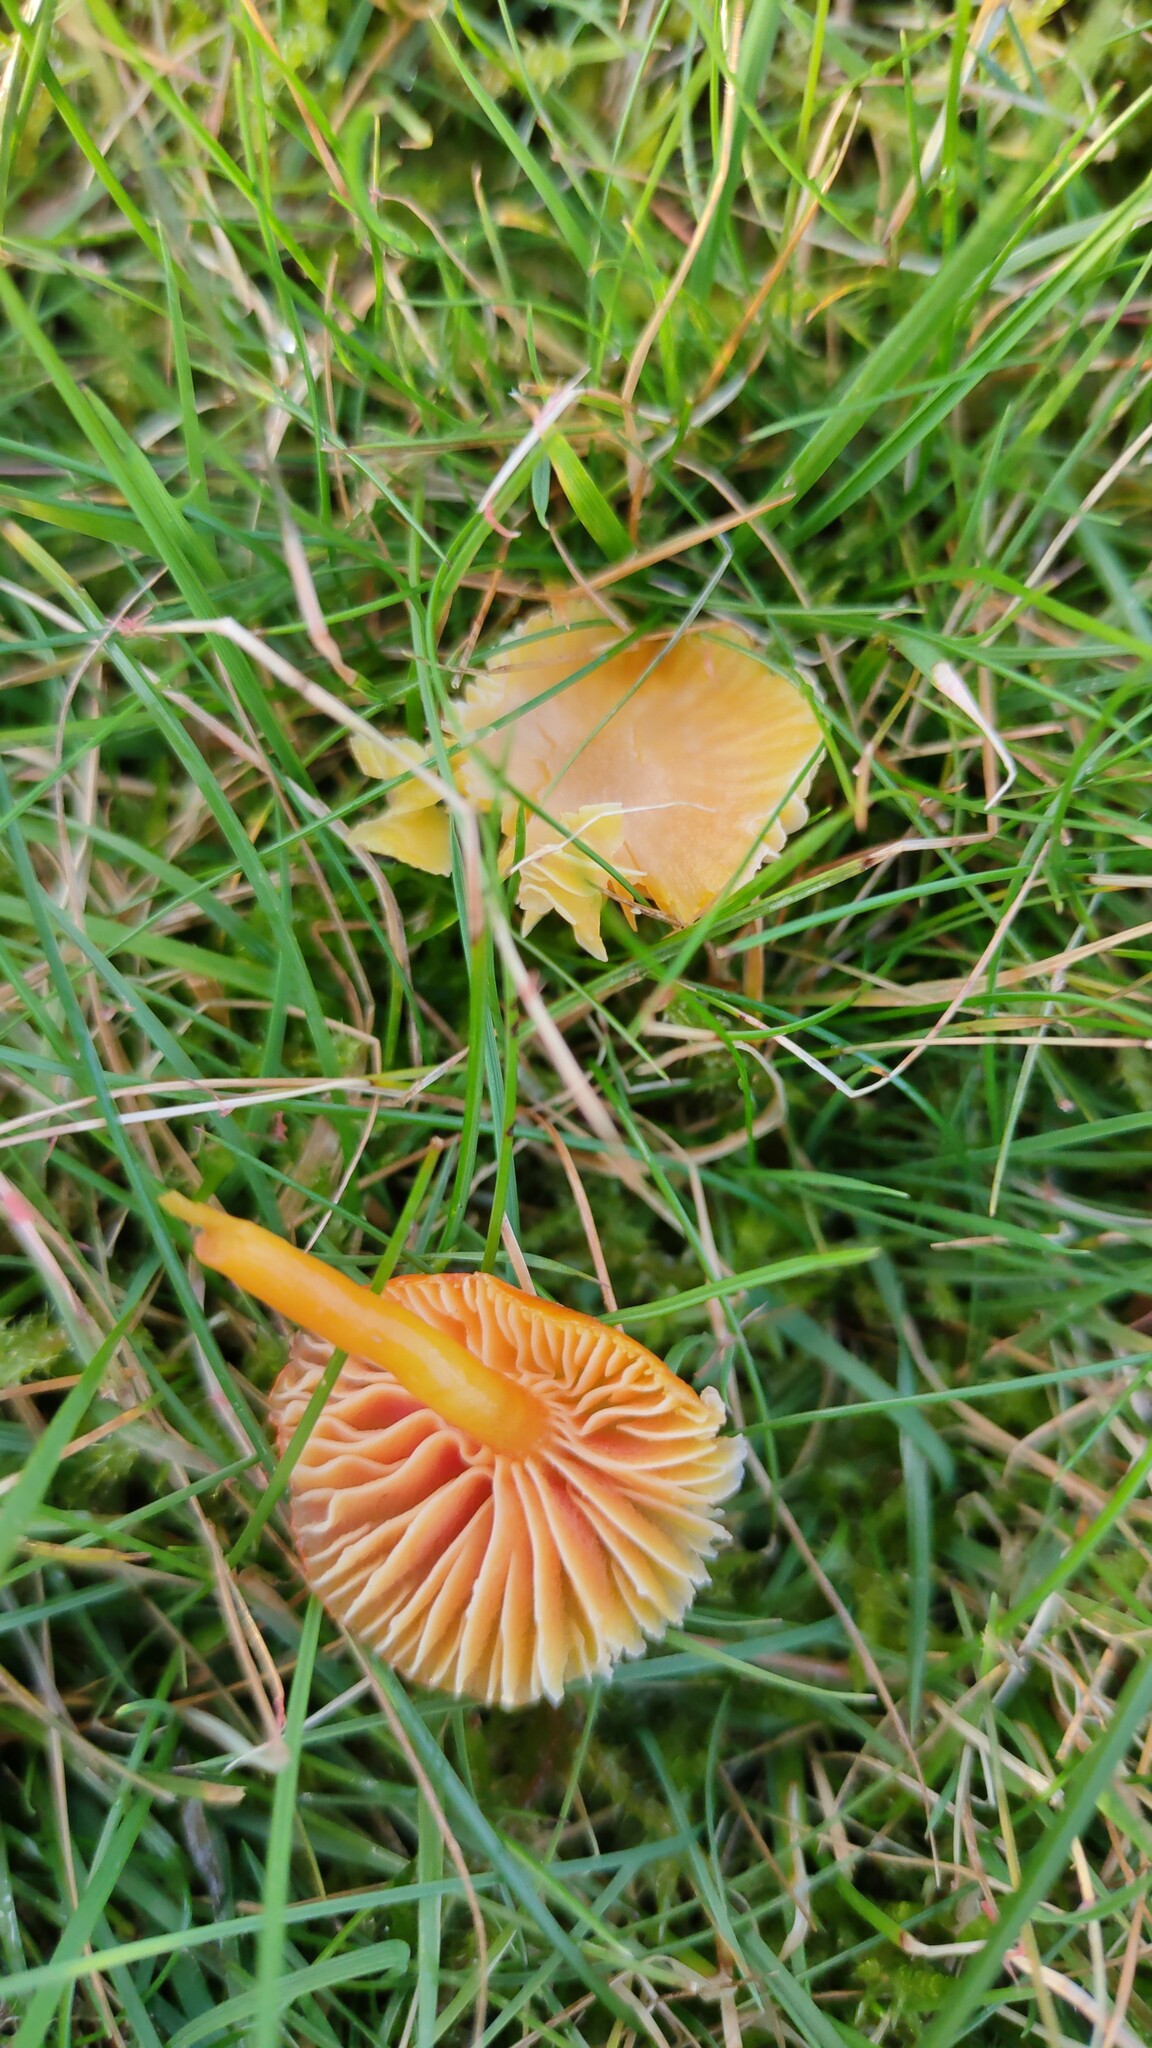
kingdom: Fungi
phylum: Basidiomycota
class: Agaricomycetes
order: Agaricales
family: Hygrophoraceae
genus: Hygrocybe
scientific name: Hygrocybe insipida
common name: Spangle waxcap
